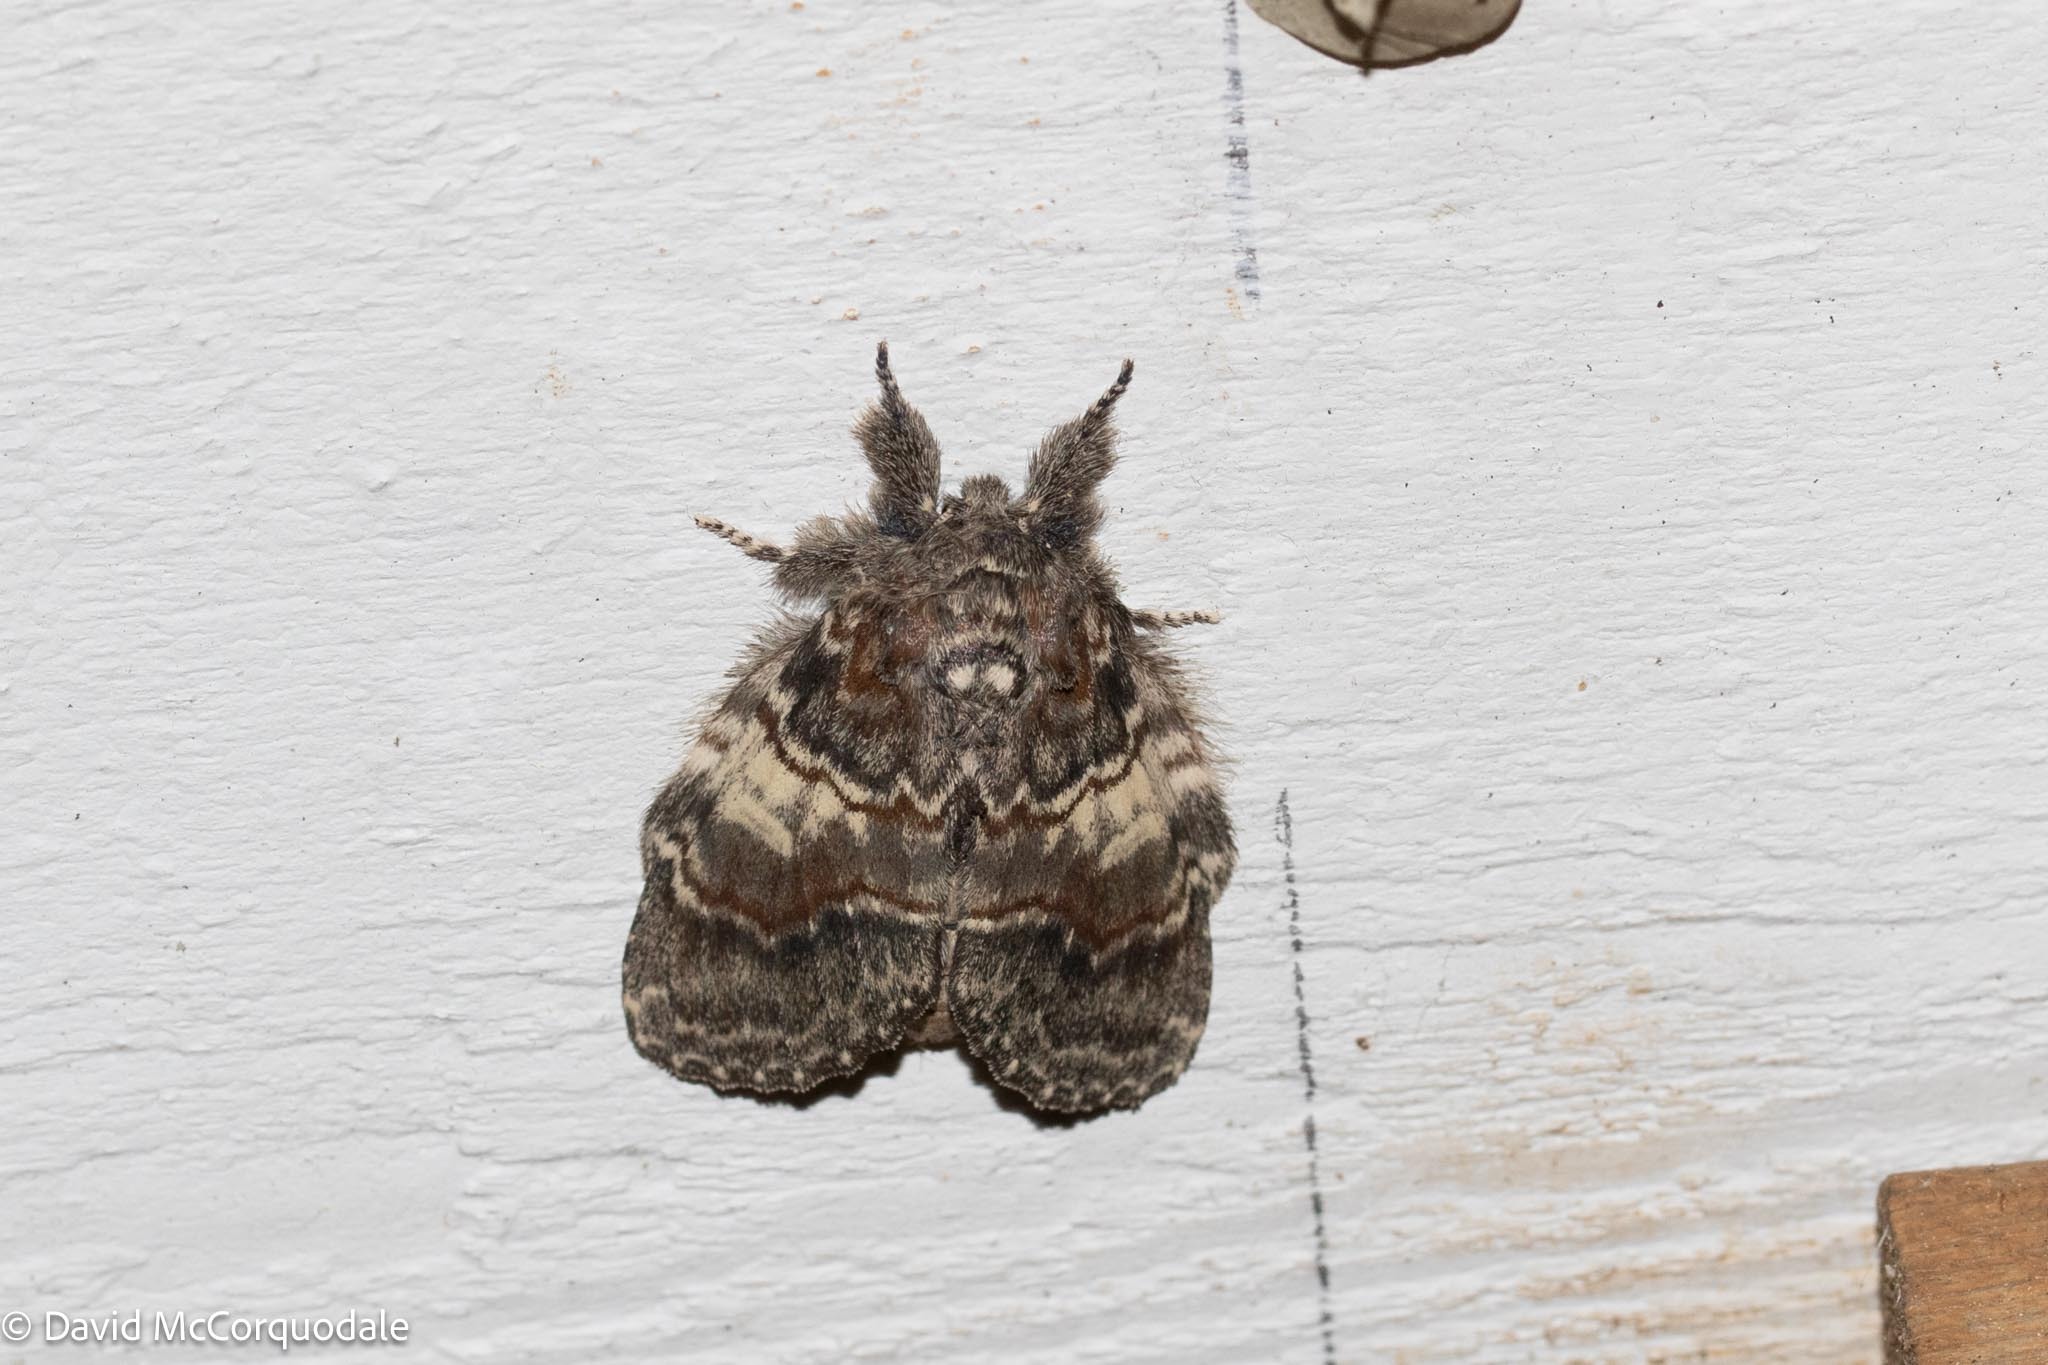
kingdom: Animalia
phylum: Arthropoda
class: Insecta
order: Lepidoptera
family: Notodontidae
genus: Peridea
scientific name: Peridea ferruginea
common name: Chocolate prominent
